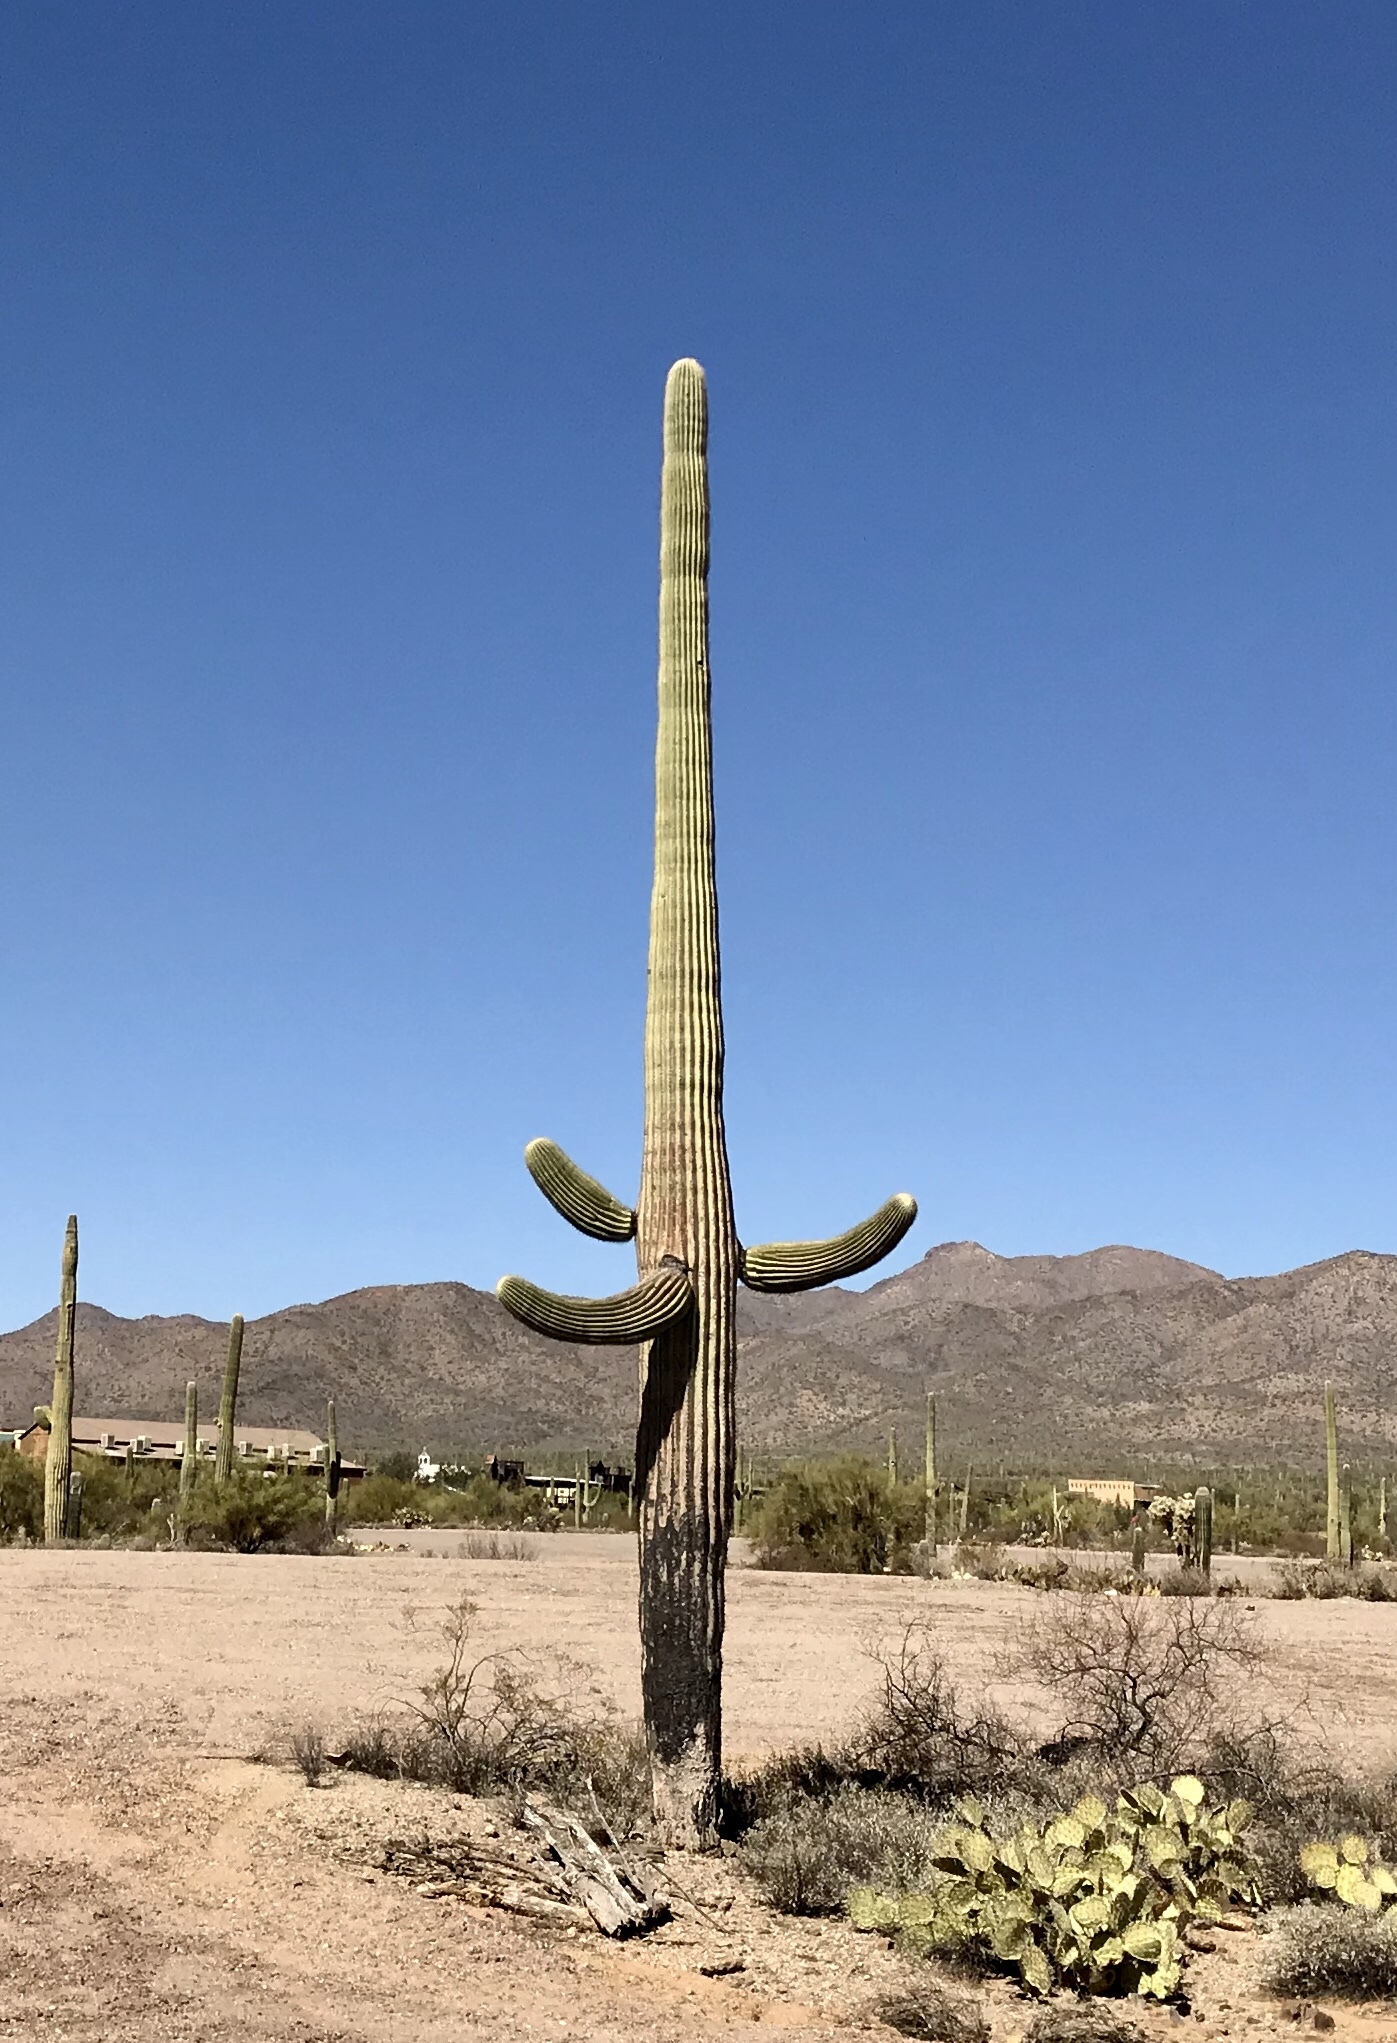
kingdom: Plantae
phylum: Tracheophyta
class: Magnoliopsida
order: Caryophyllales
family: Cactaceae
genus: Carnegiea
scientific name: Carnegiea gigantea
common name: Saguaro
